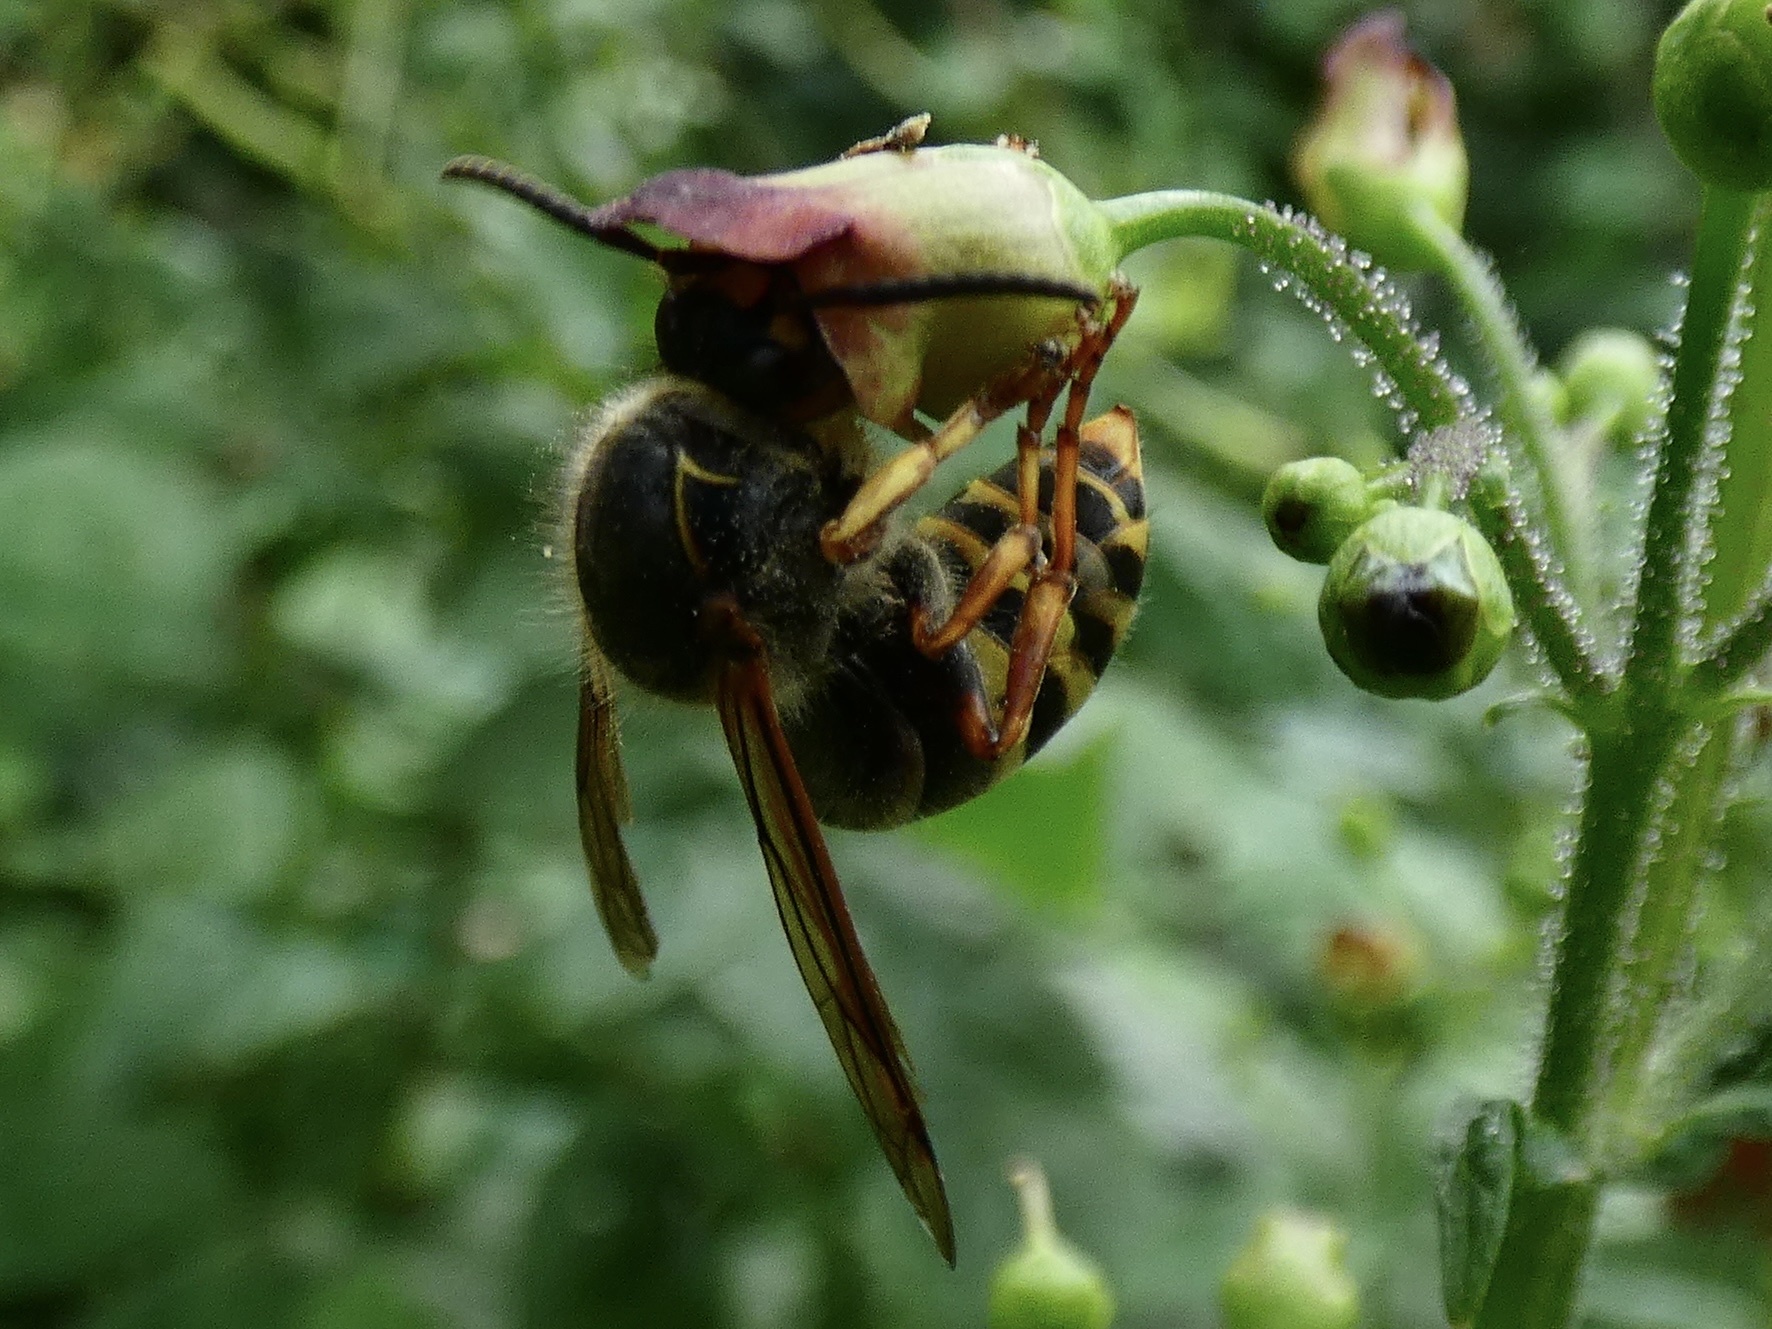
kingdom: Animalia
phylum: Arthropoda
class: Insecta
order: Hymenoptera
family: Vespidae
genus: Dolichovespula
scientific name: Dolichovespula media
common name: Median wasp
